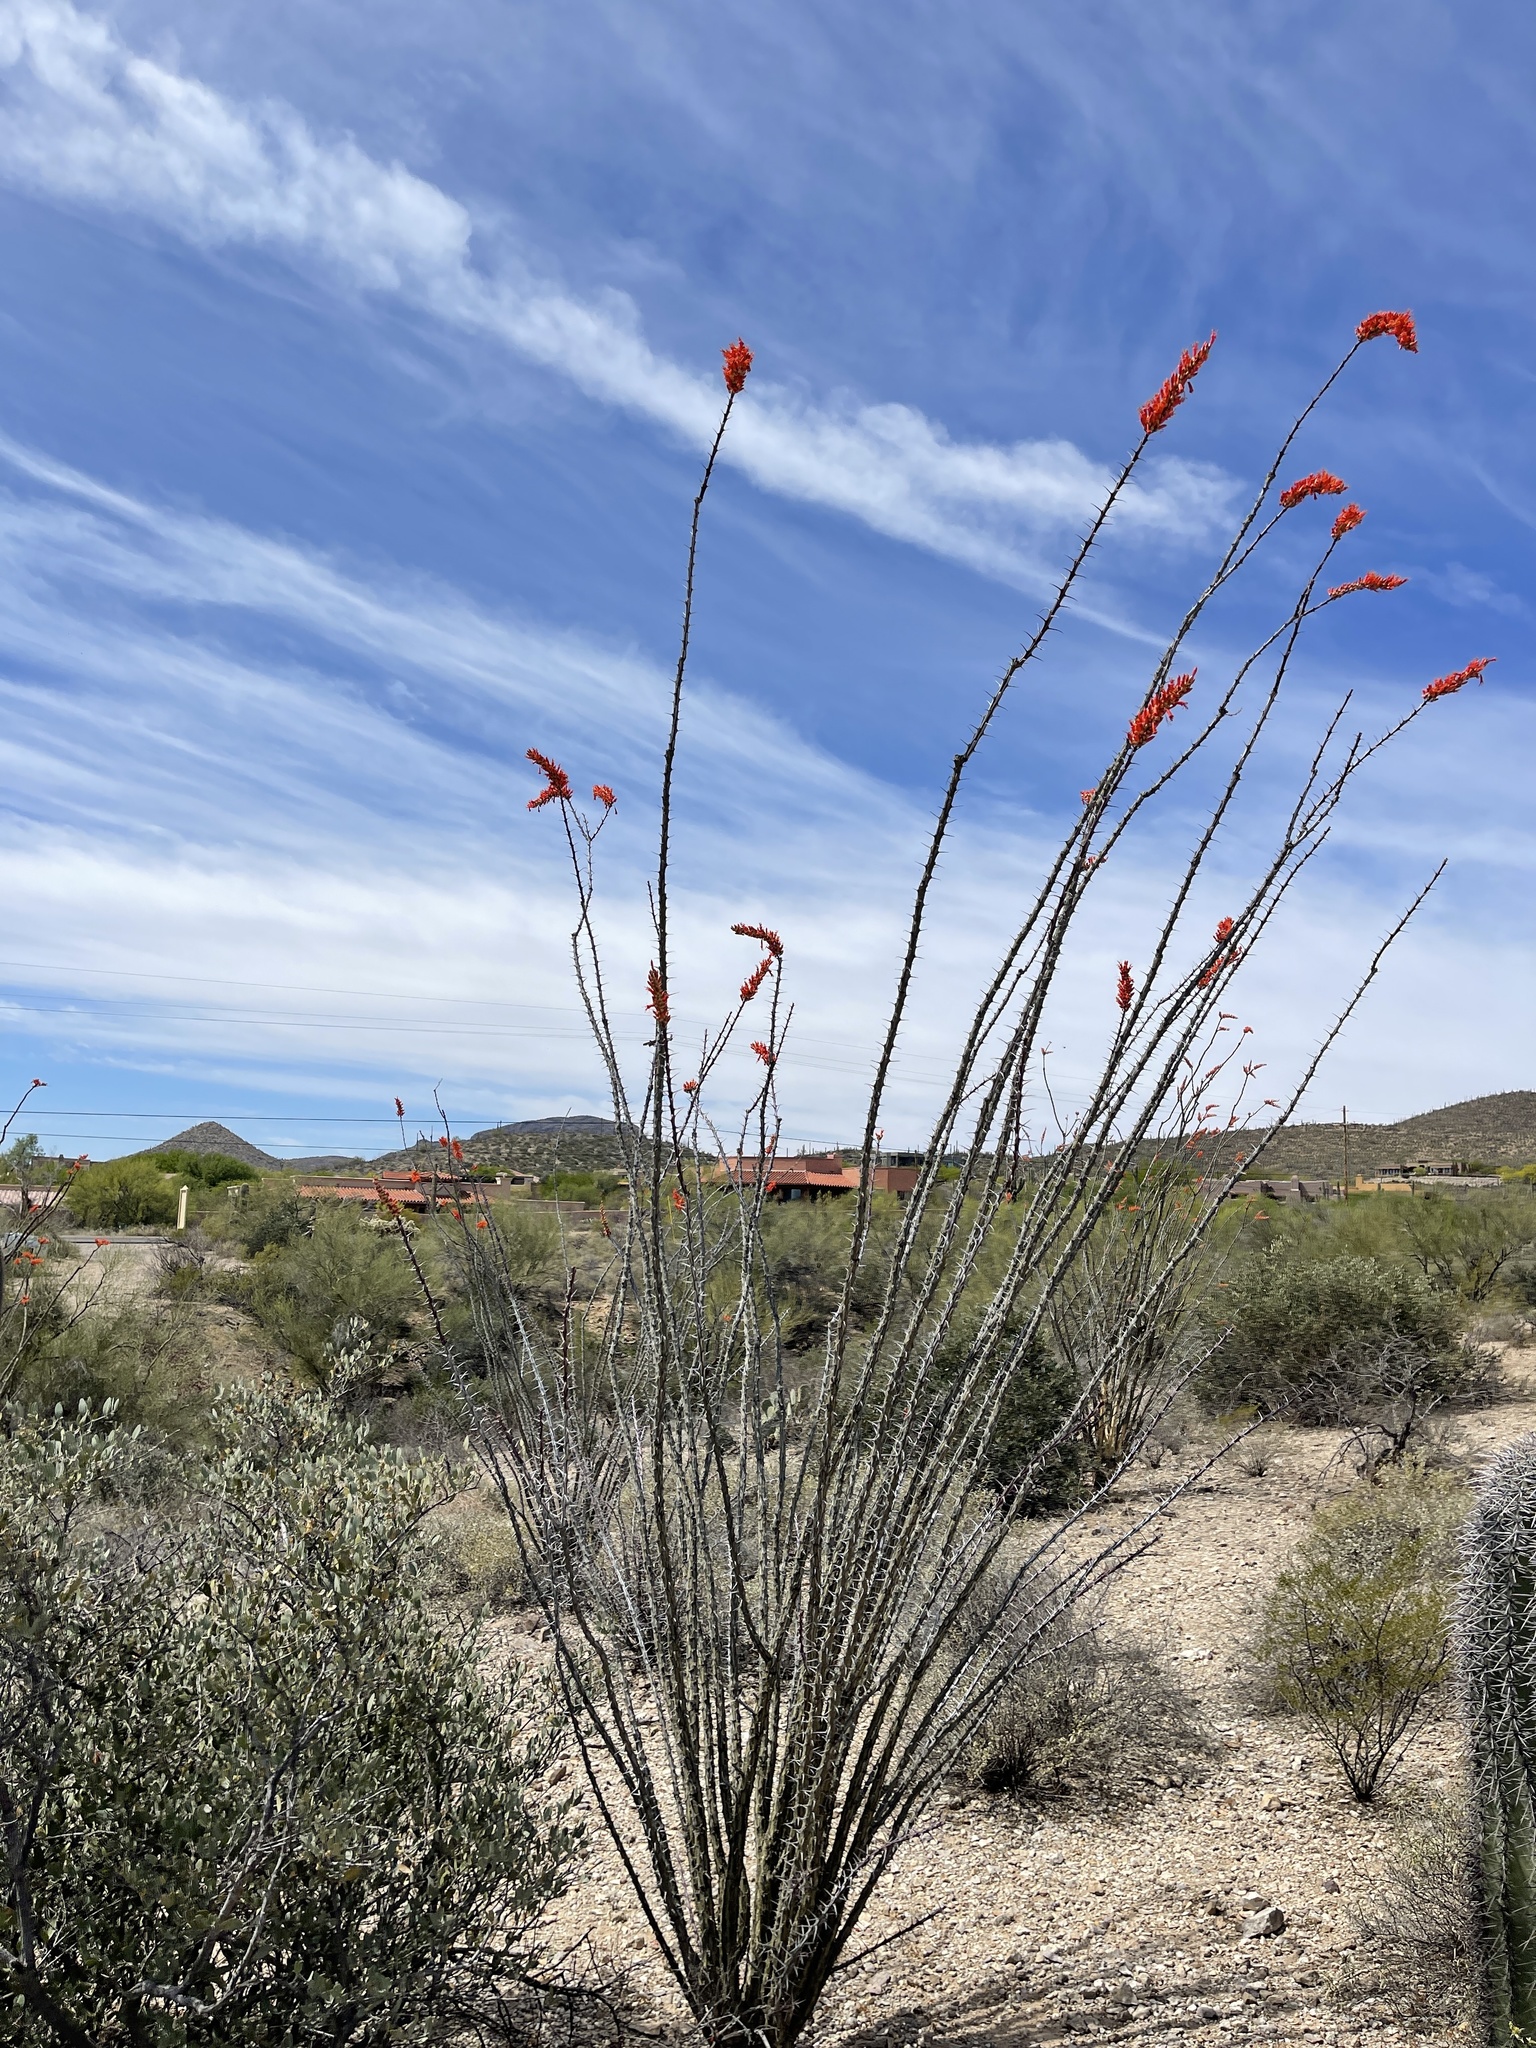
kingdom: Plantae
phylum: Tracheophyta
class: Magnoliopsida
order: Ericales
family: Fouquieriaceae
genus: Fouquieria
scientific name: Fouquieria splendens
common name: Vine-cactus
